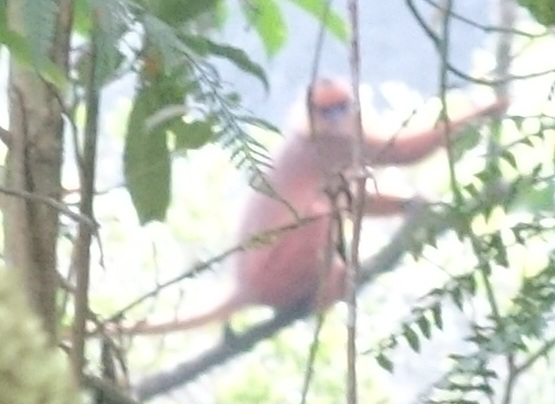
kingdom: Animalia
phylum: Chordata
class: Mammalia
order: Primates
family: Cercopithecidae
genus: Presbytis
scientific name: Presbytis melalophos
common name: Sumatran surili
